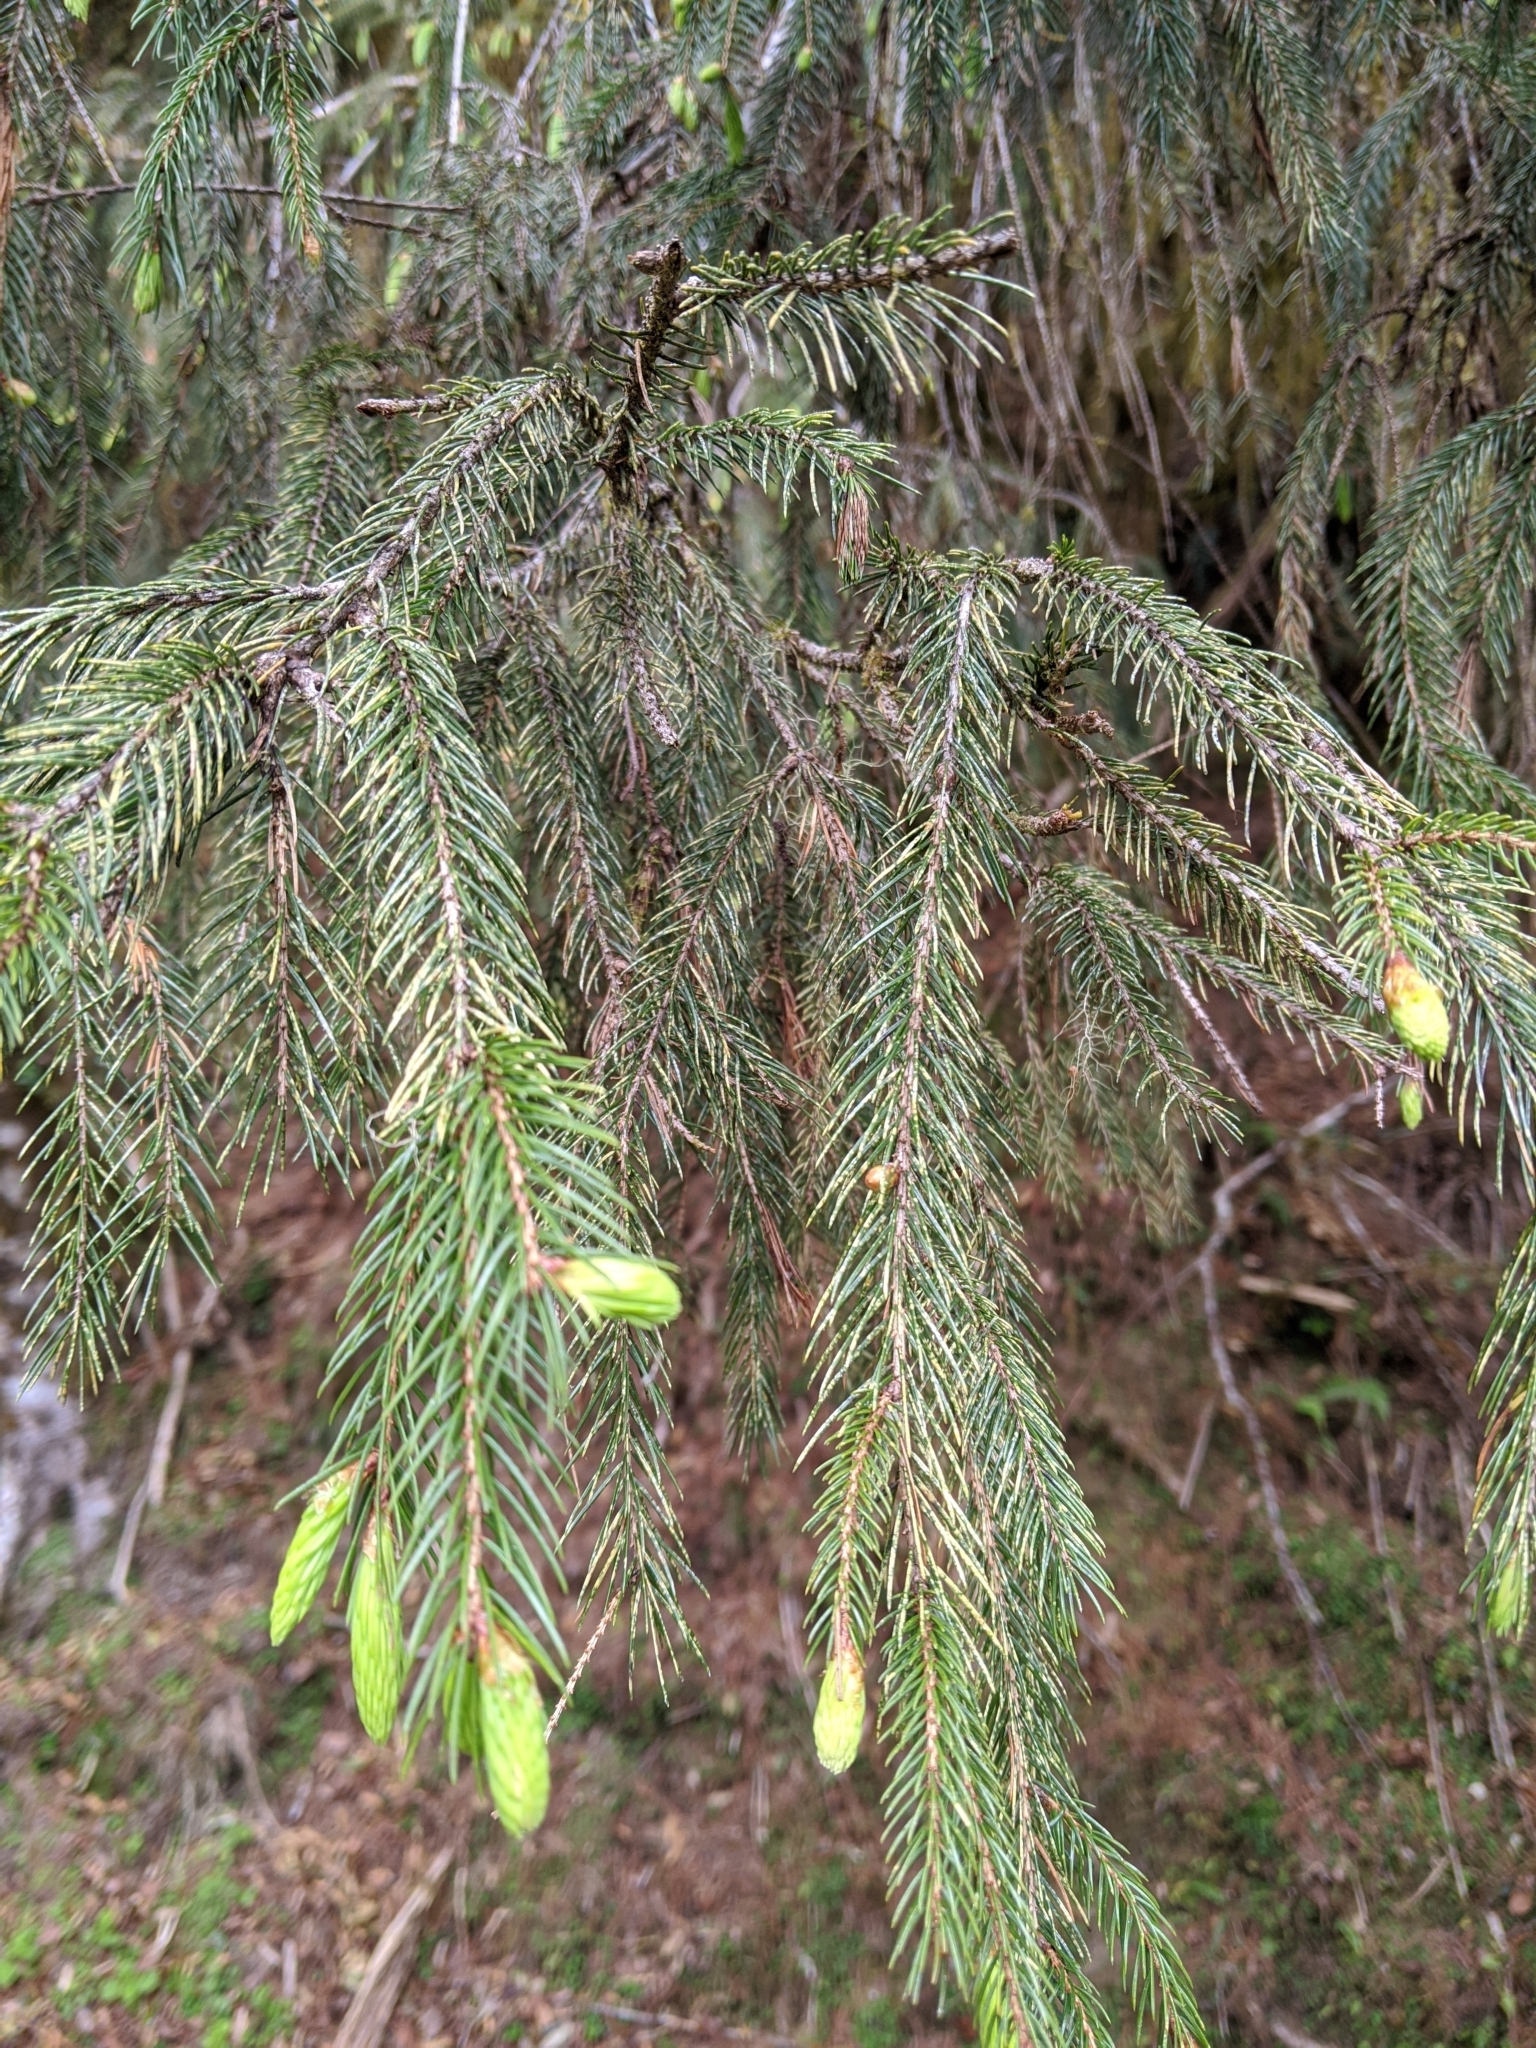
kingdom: Plantae
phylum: Tracheophyta
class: Pinopsida
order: Pinales
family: Pinaceae
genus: Picea
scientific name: Picea morrisonicola
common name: Mount morrison spruce
